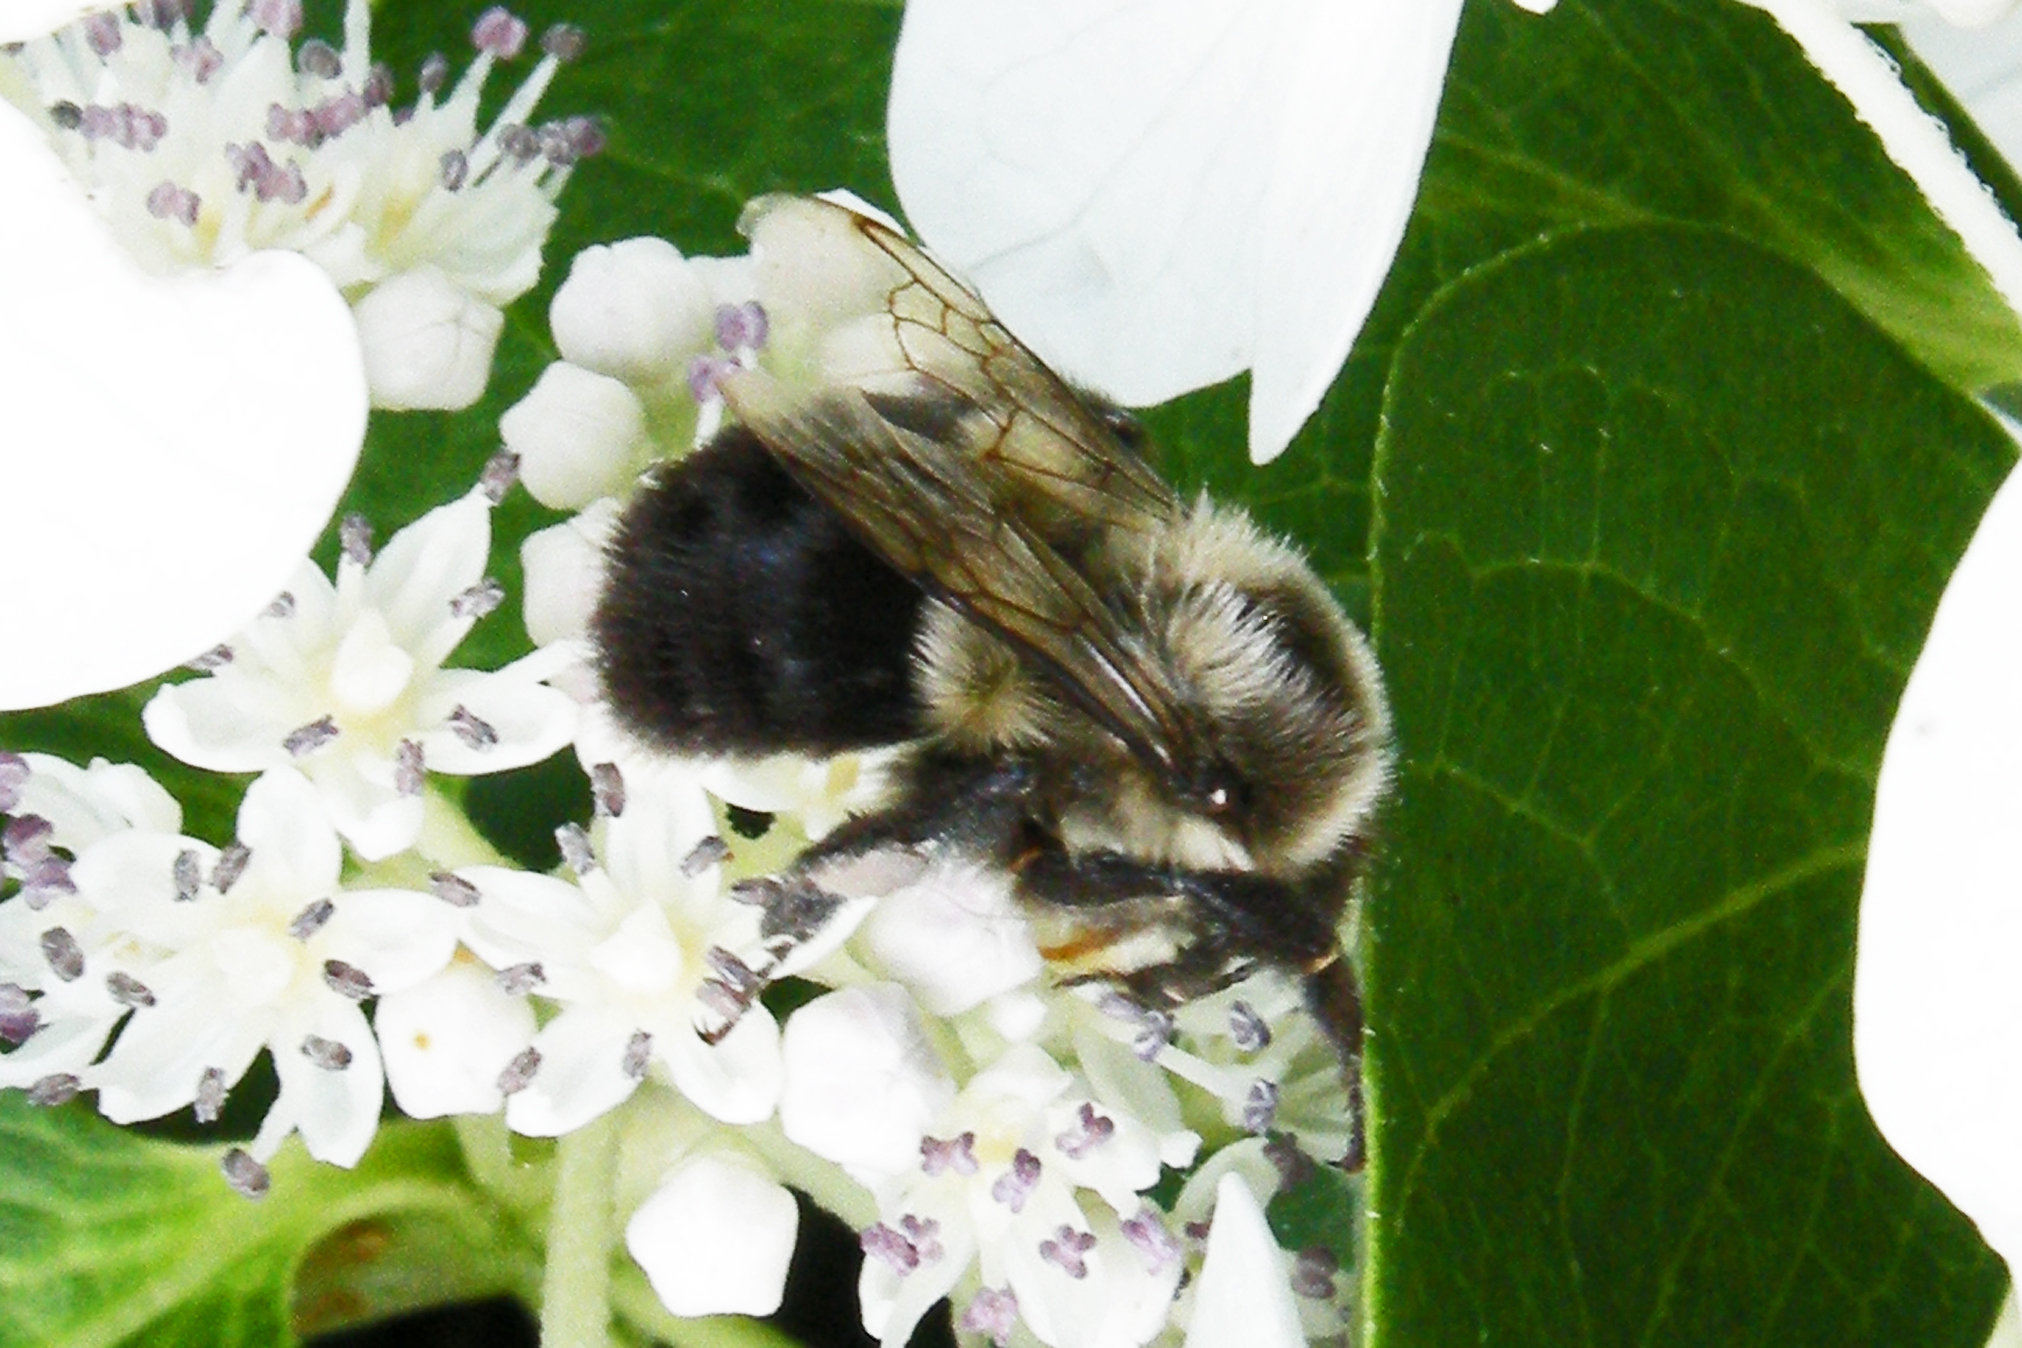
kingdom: Animalia
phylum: Arthropoda
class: Insecta
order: Hymenoptera
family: Apidae
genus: Bombus
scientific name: Bombus impatiens
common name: Common eastern bumble bee
